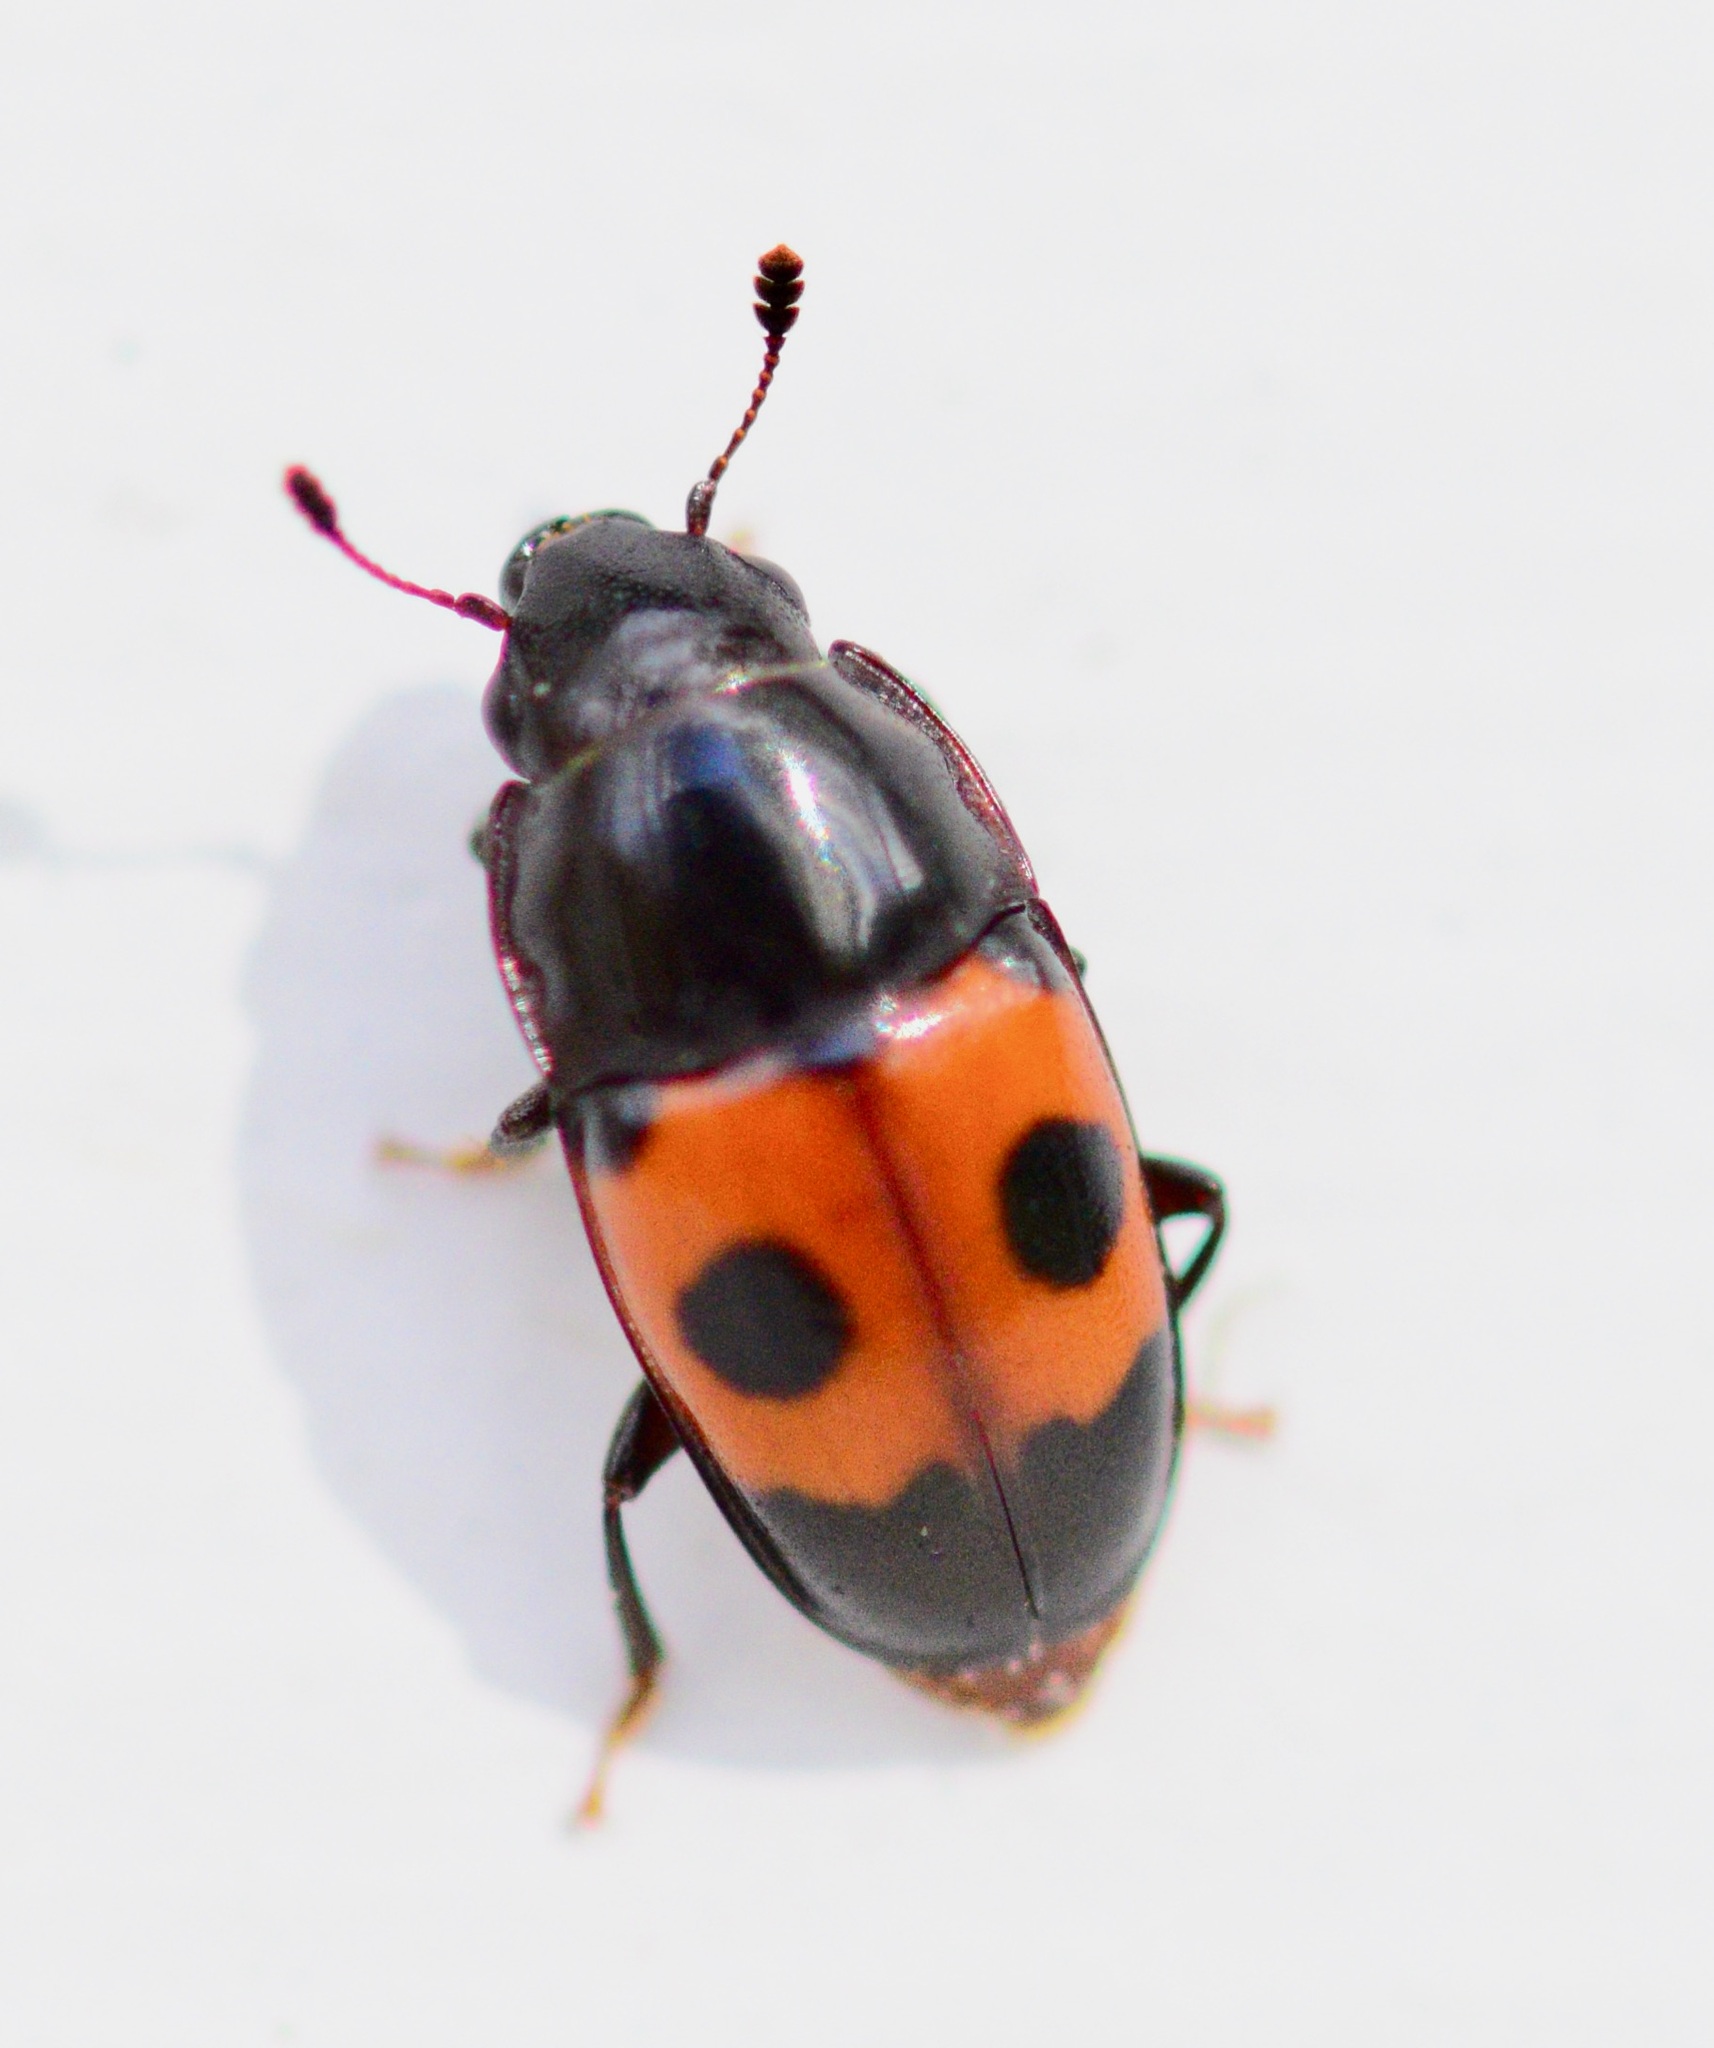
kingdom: Animalia
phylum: Arthropoda
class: Insecta
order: Coleoptera
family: Nitidulidae
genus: Glischrochilus
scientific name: Glischrochilus sanguinolentus
